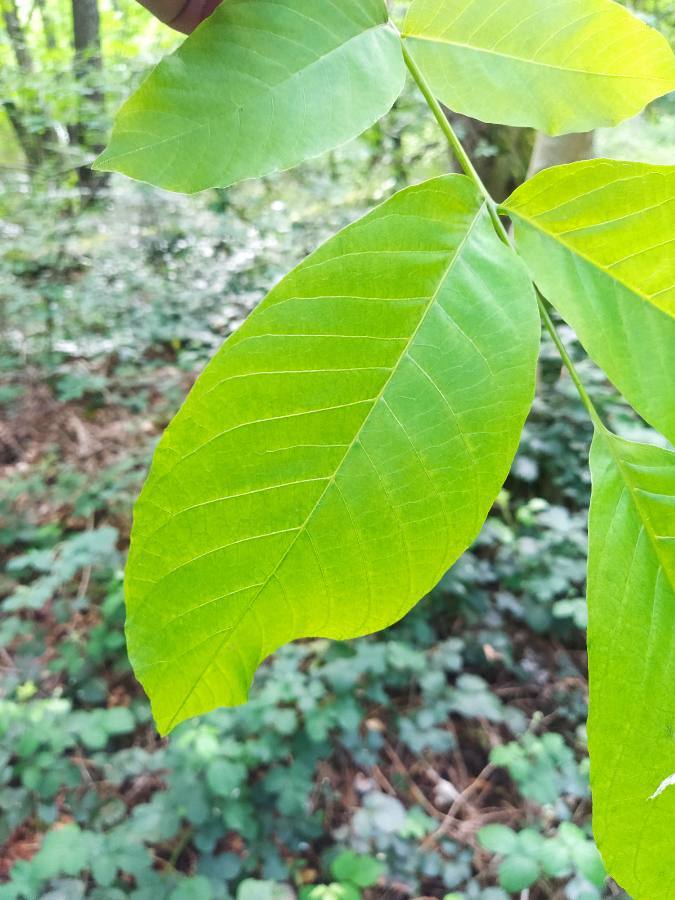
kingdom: Plantae
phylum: Tracheophyta
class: Magnoliopsida
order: Fagales
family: Juglandaceae
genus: Juglans
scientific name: Juglans regia
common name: Walnut
